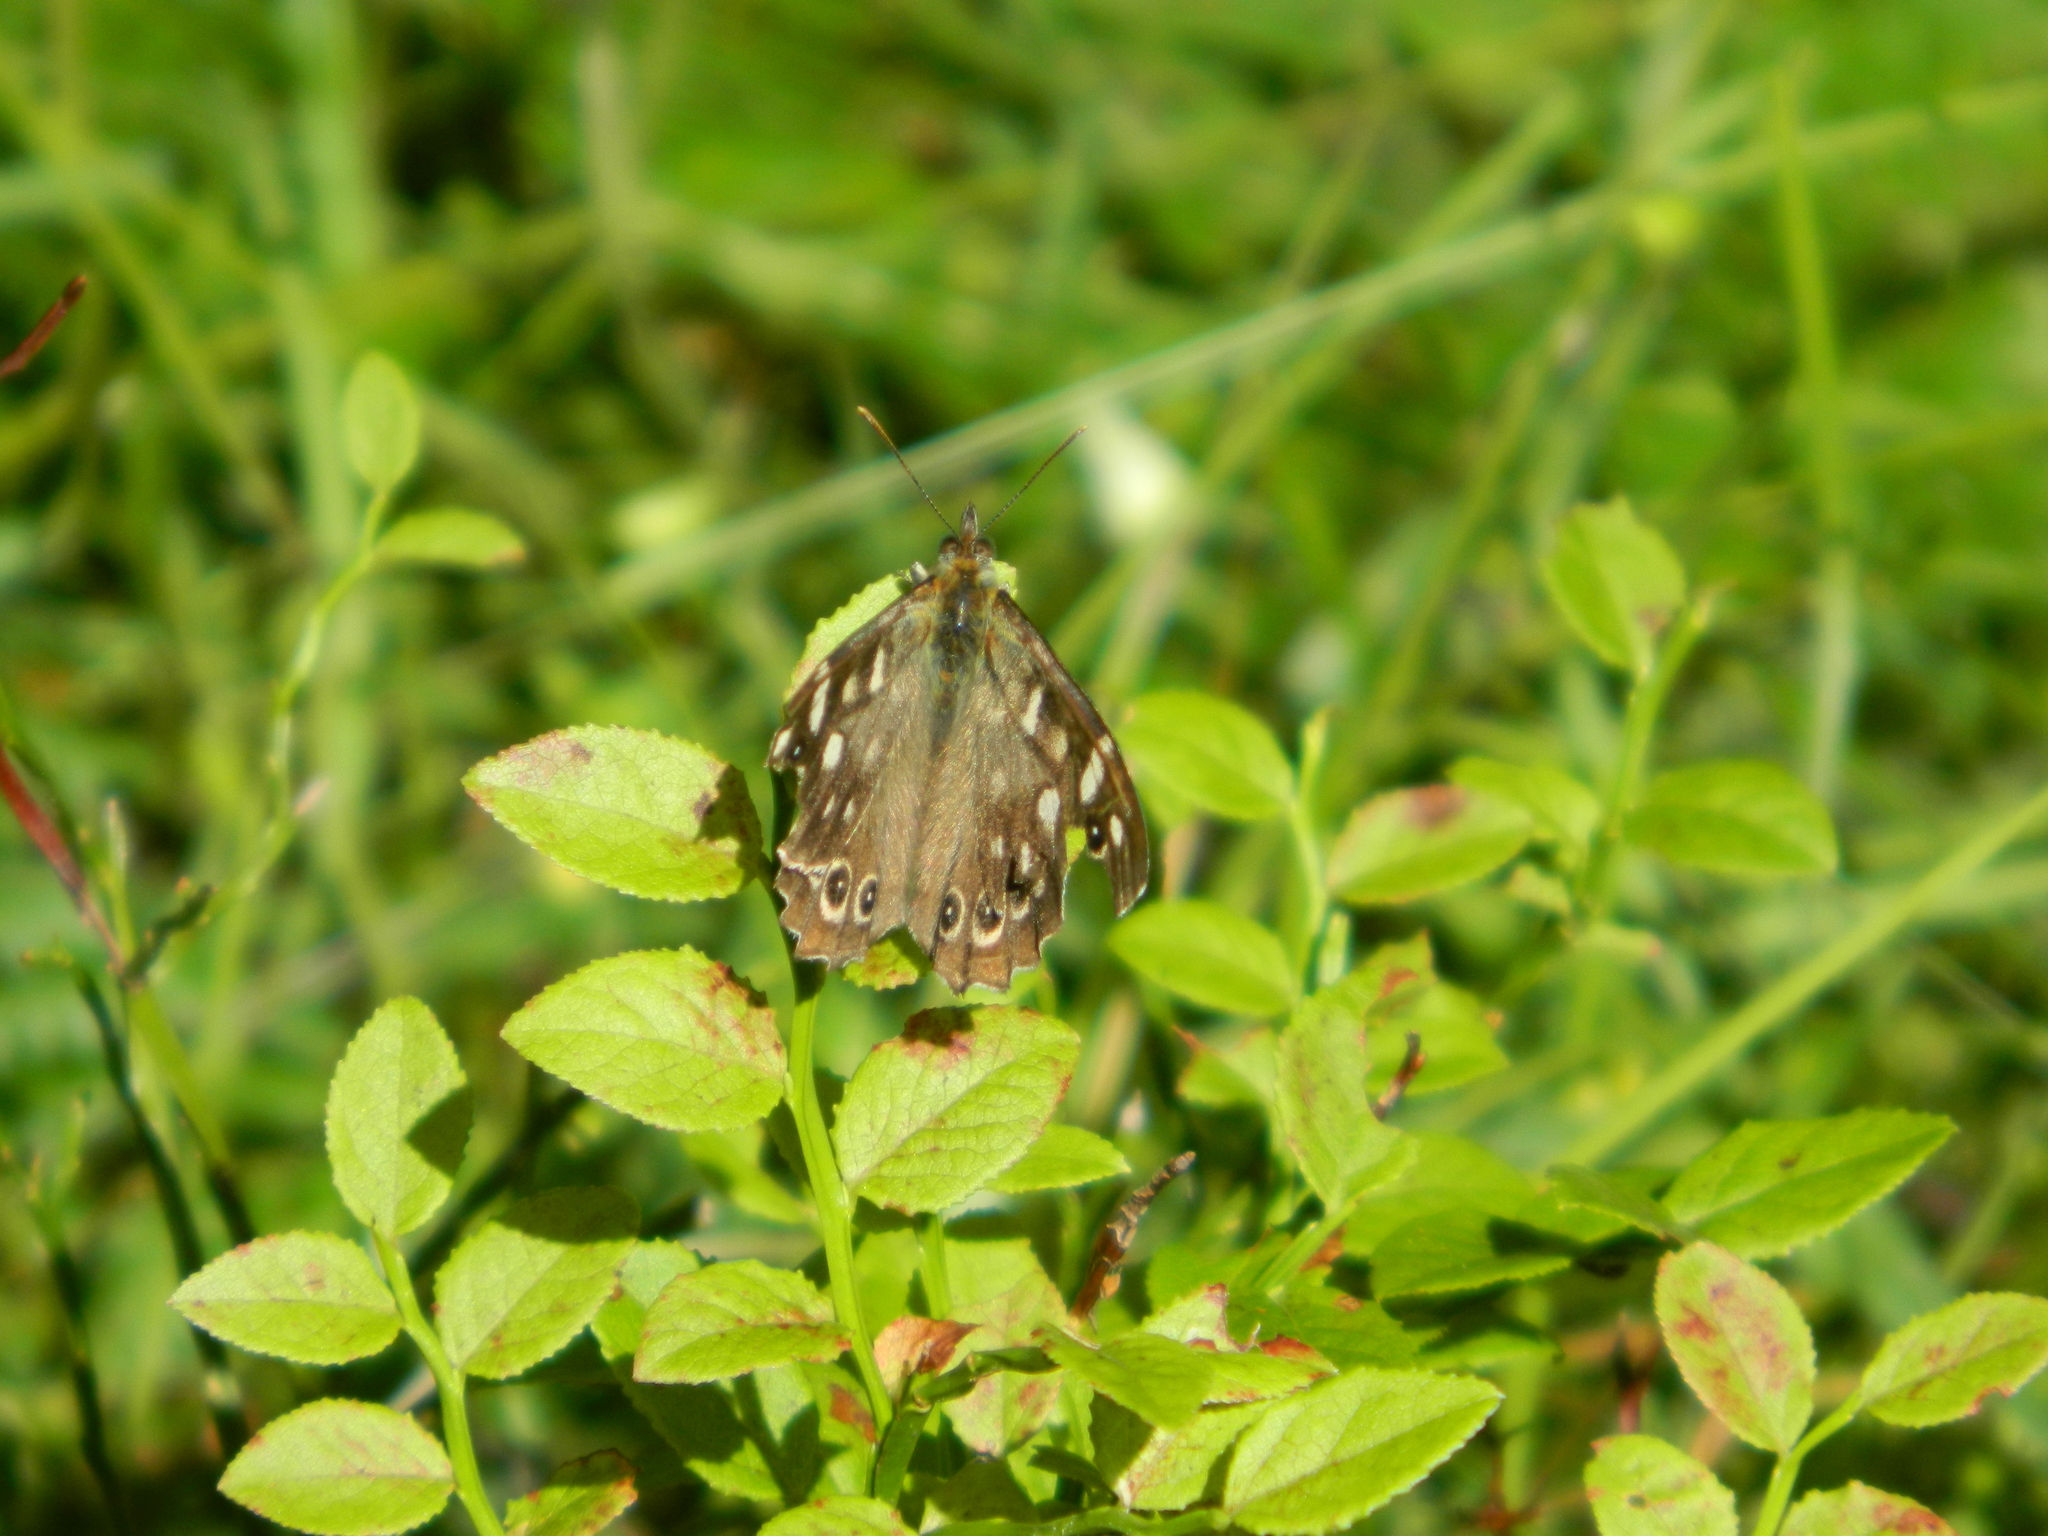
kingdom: Animalia
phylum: Arthropoda
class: Insecta
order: Lepidoptera
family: Nymphalidae
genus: Pararge
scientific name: Pararge aegeria
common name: Speckled wood
